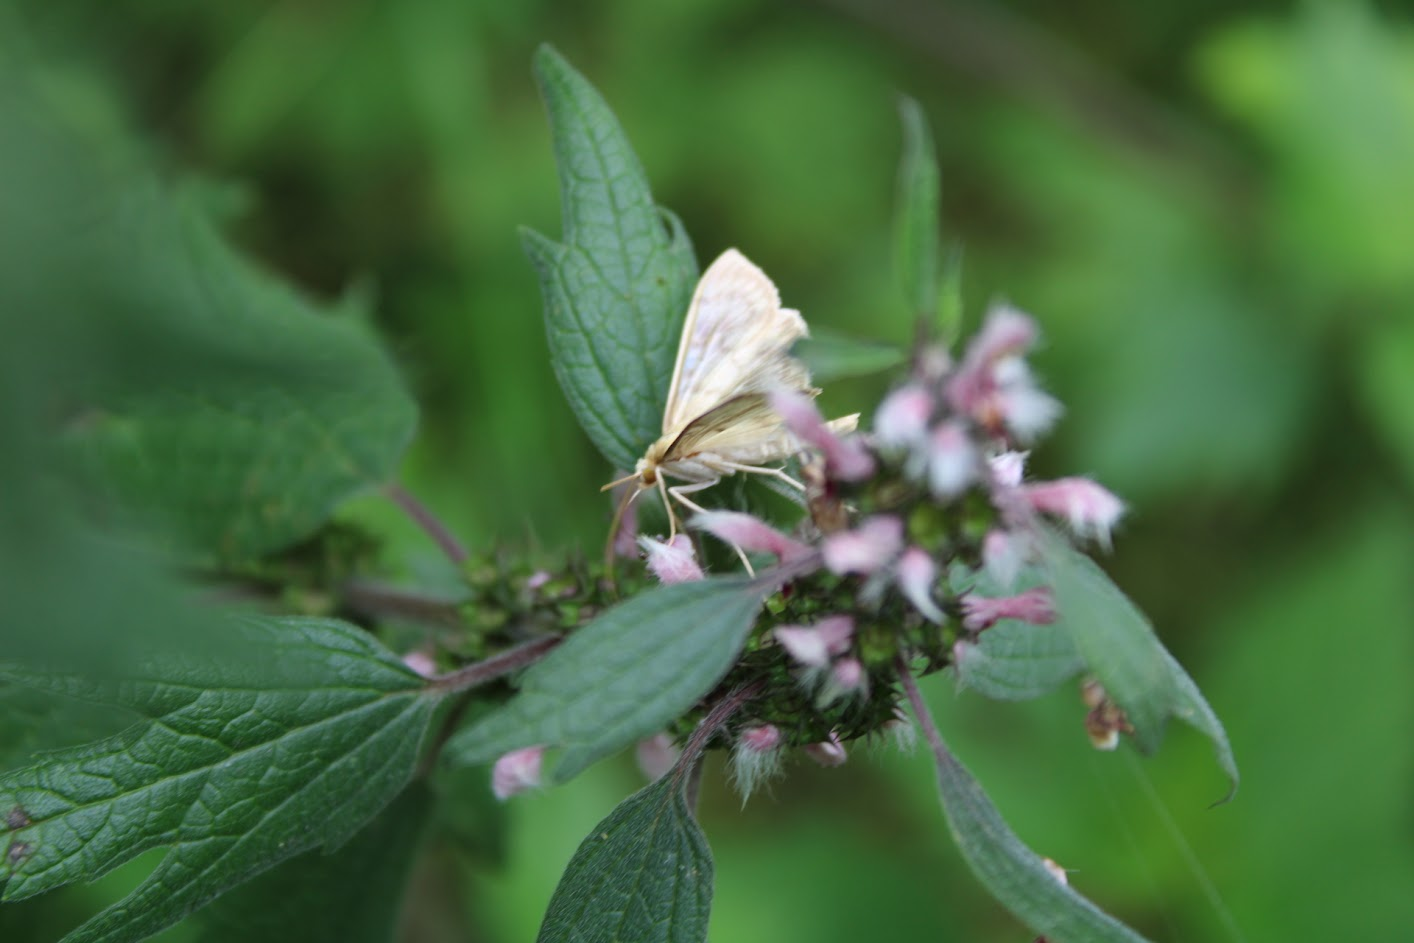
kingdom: Animalia
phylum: Arthropoda
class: Insecta
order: Lepidoptera
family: Crambidae
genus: Patania
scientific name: Patania ruralis
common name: Mother of pearl
